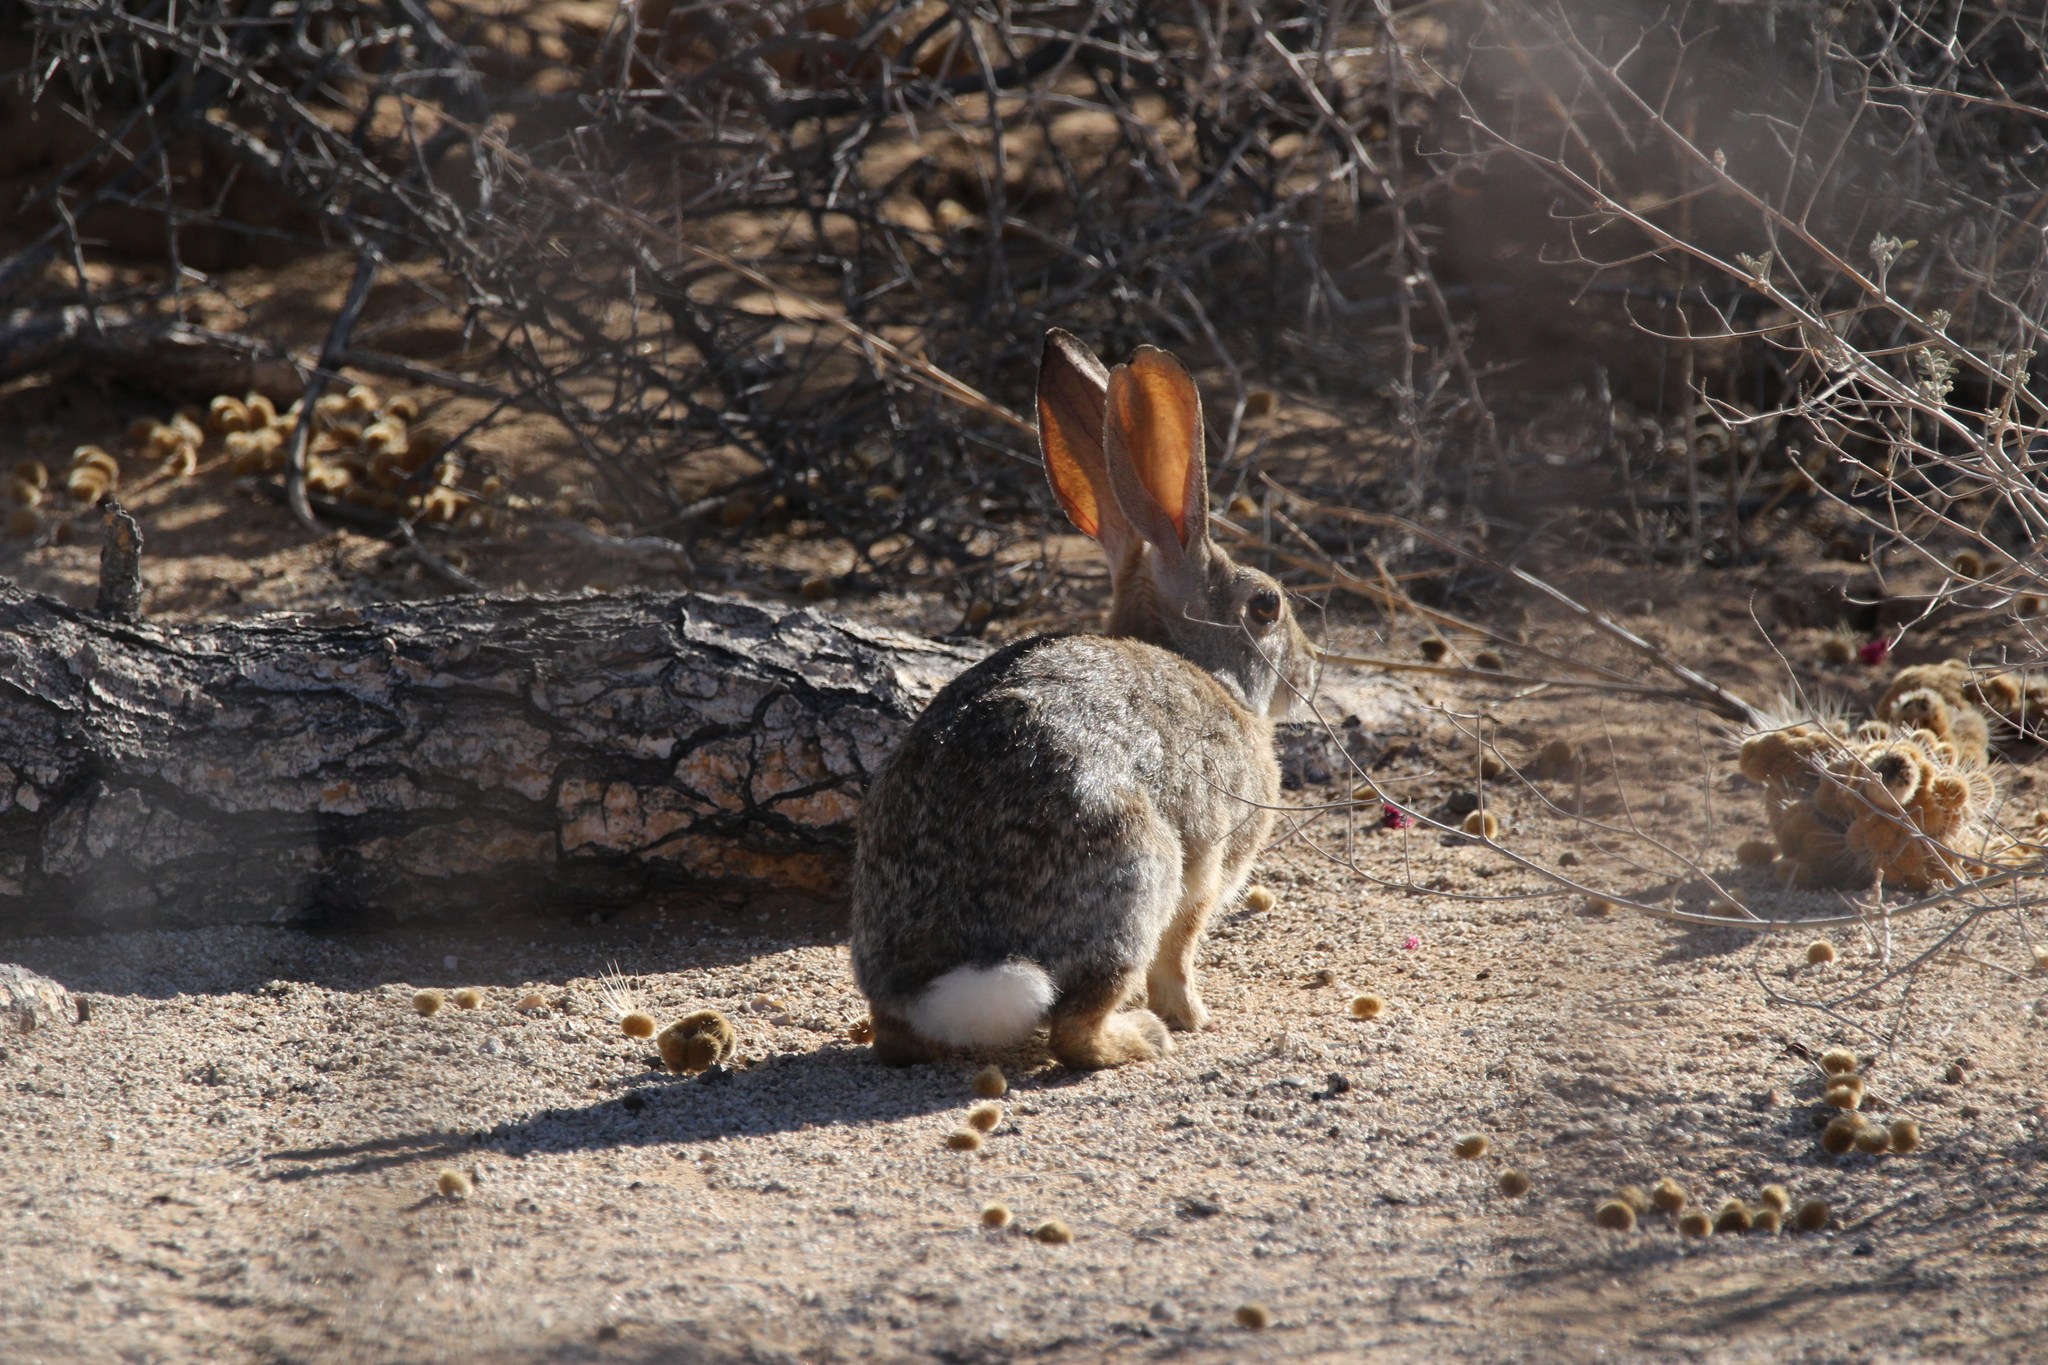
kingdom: Animalia
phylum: Chordata
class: Mammalia
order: Lagomorpha
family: Leporidae
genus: Sylvilagus
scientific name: Sylvilagus audubonii
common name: Desert cottontail
